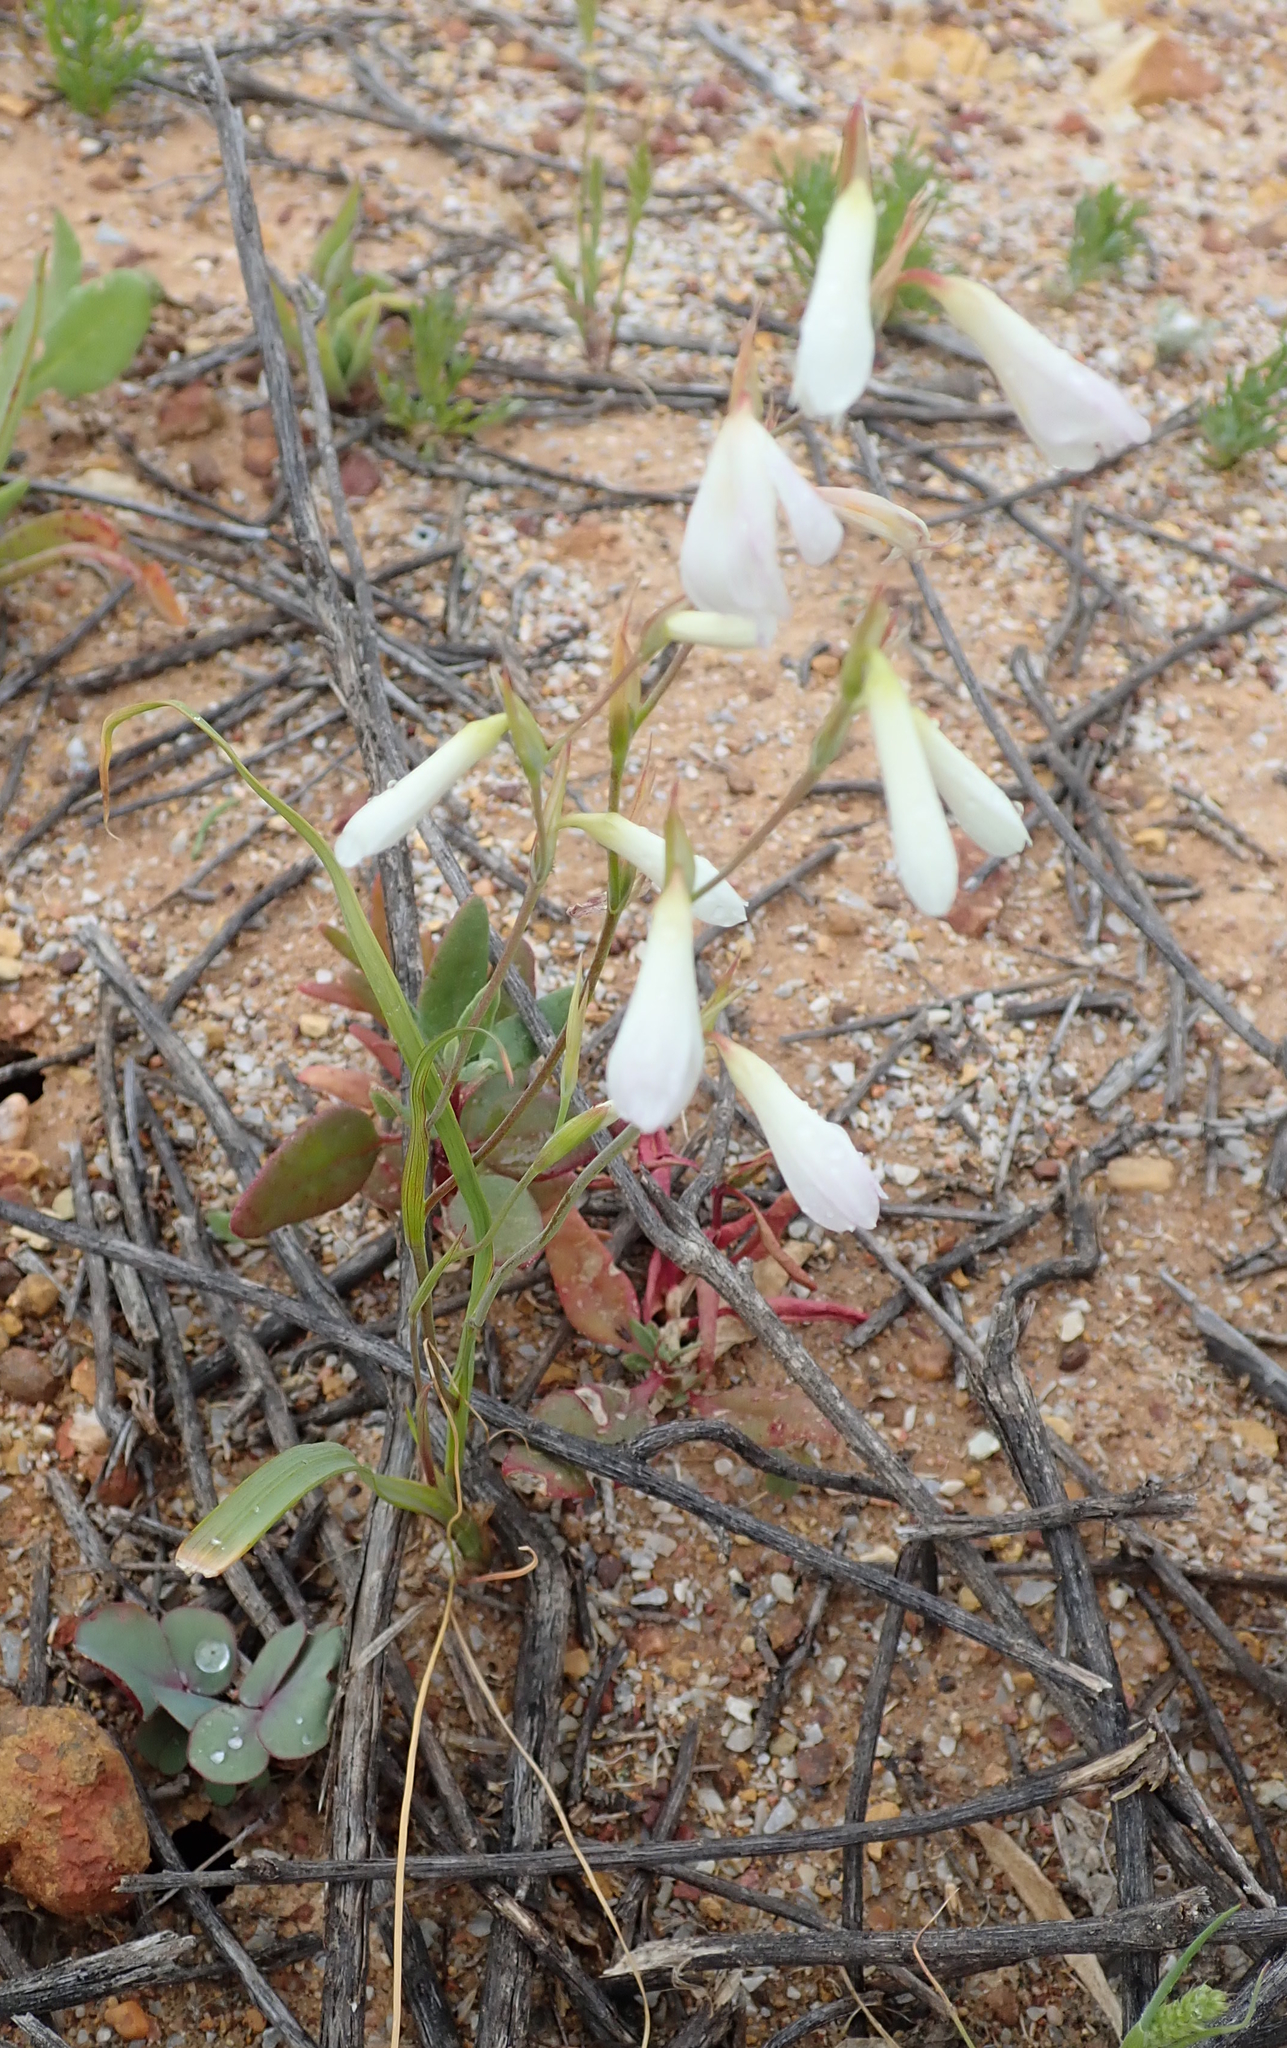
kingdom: Plantae
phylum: Tracheophyta
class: Liliopsida
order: Asparagales
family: Iridaceae
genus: Hesperantha
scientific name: Hesperantha bachmannii
